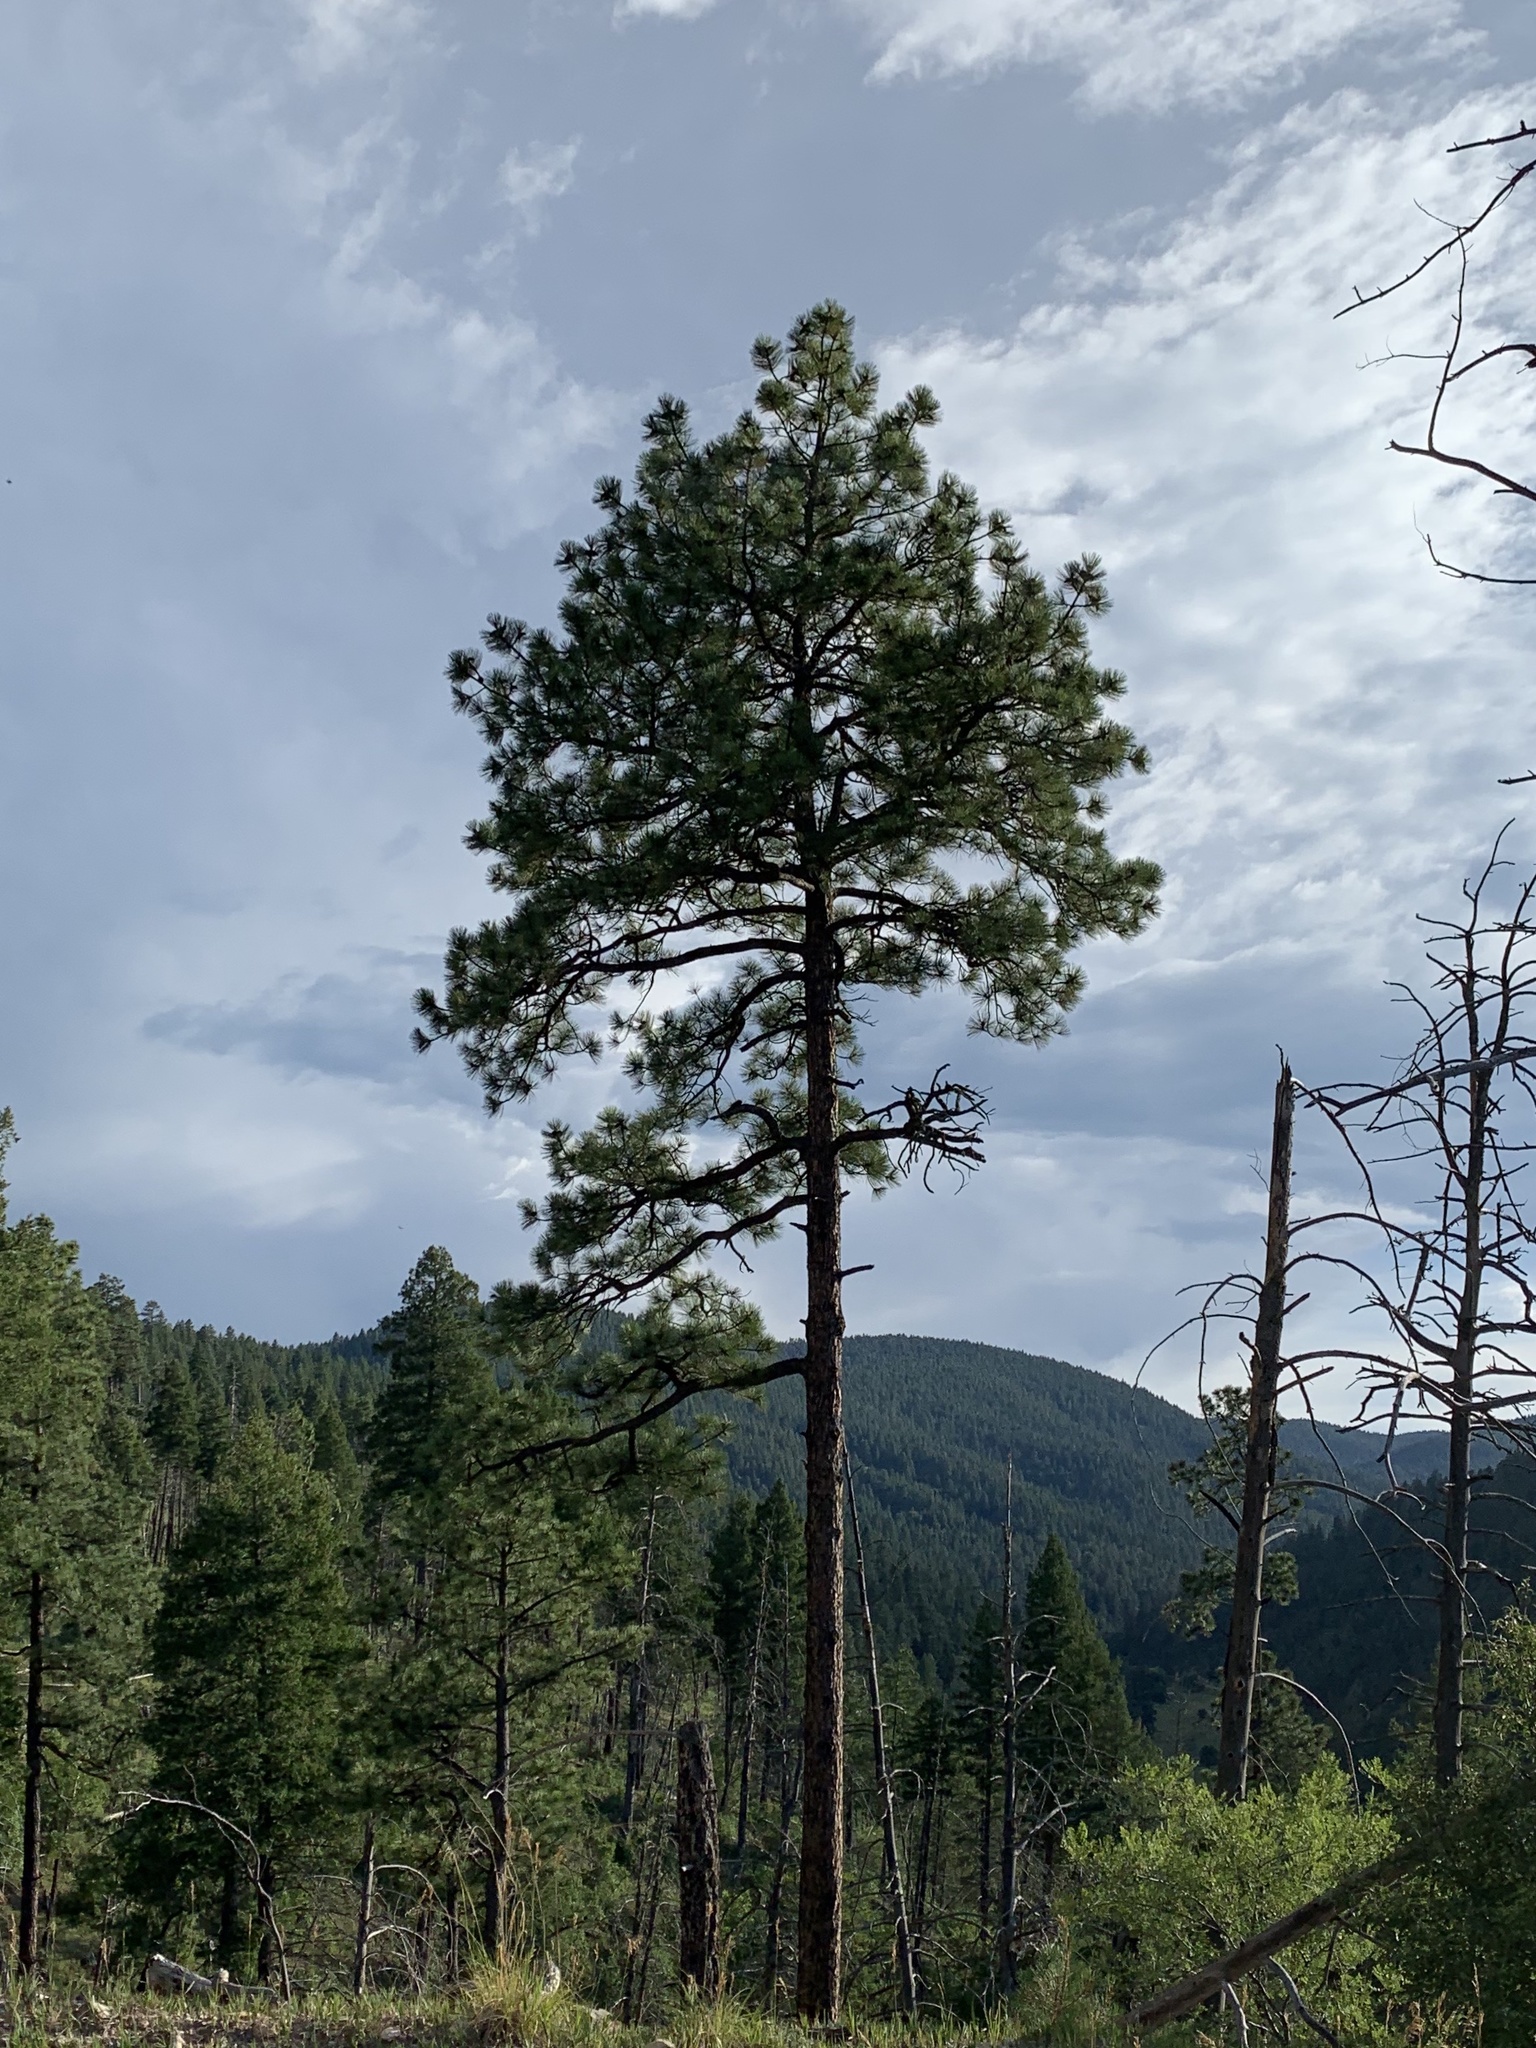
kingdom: Plantae
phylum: Tracheophyta
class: Pinopsida
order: Pinales
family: Pinaceae
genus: Pinus
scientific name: Pinus ponderosa
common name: Western yellow-pine
